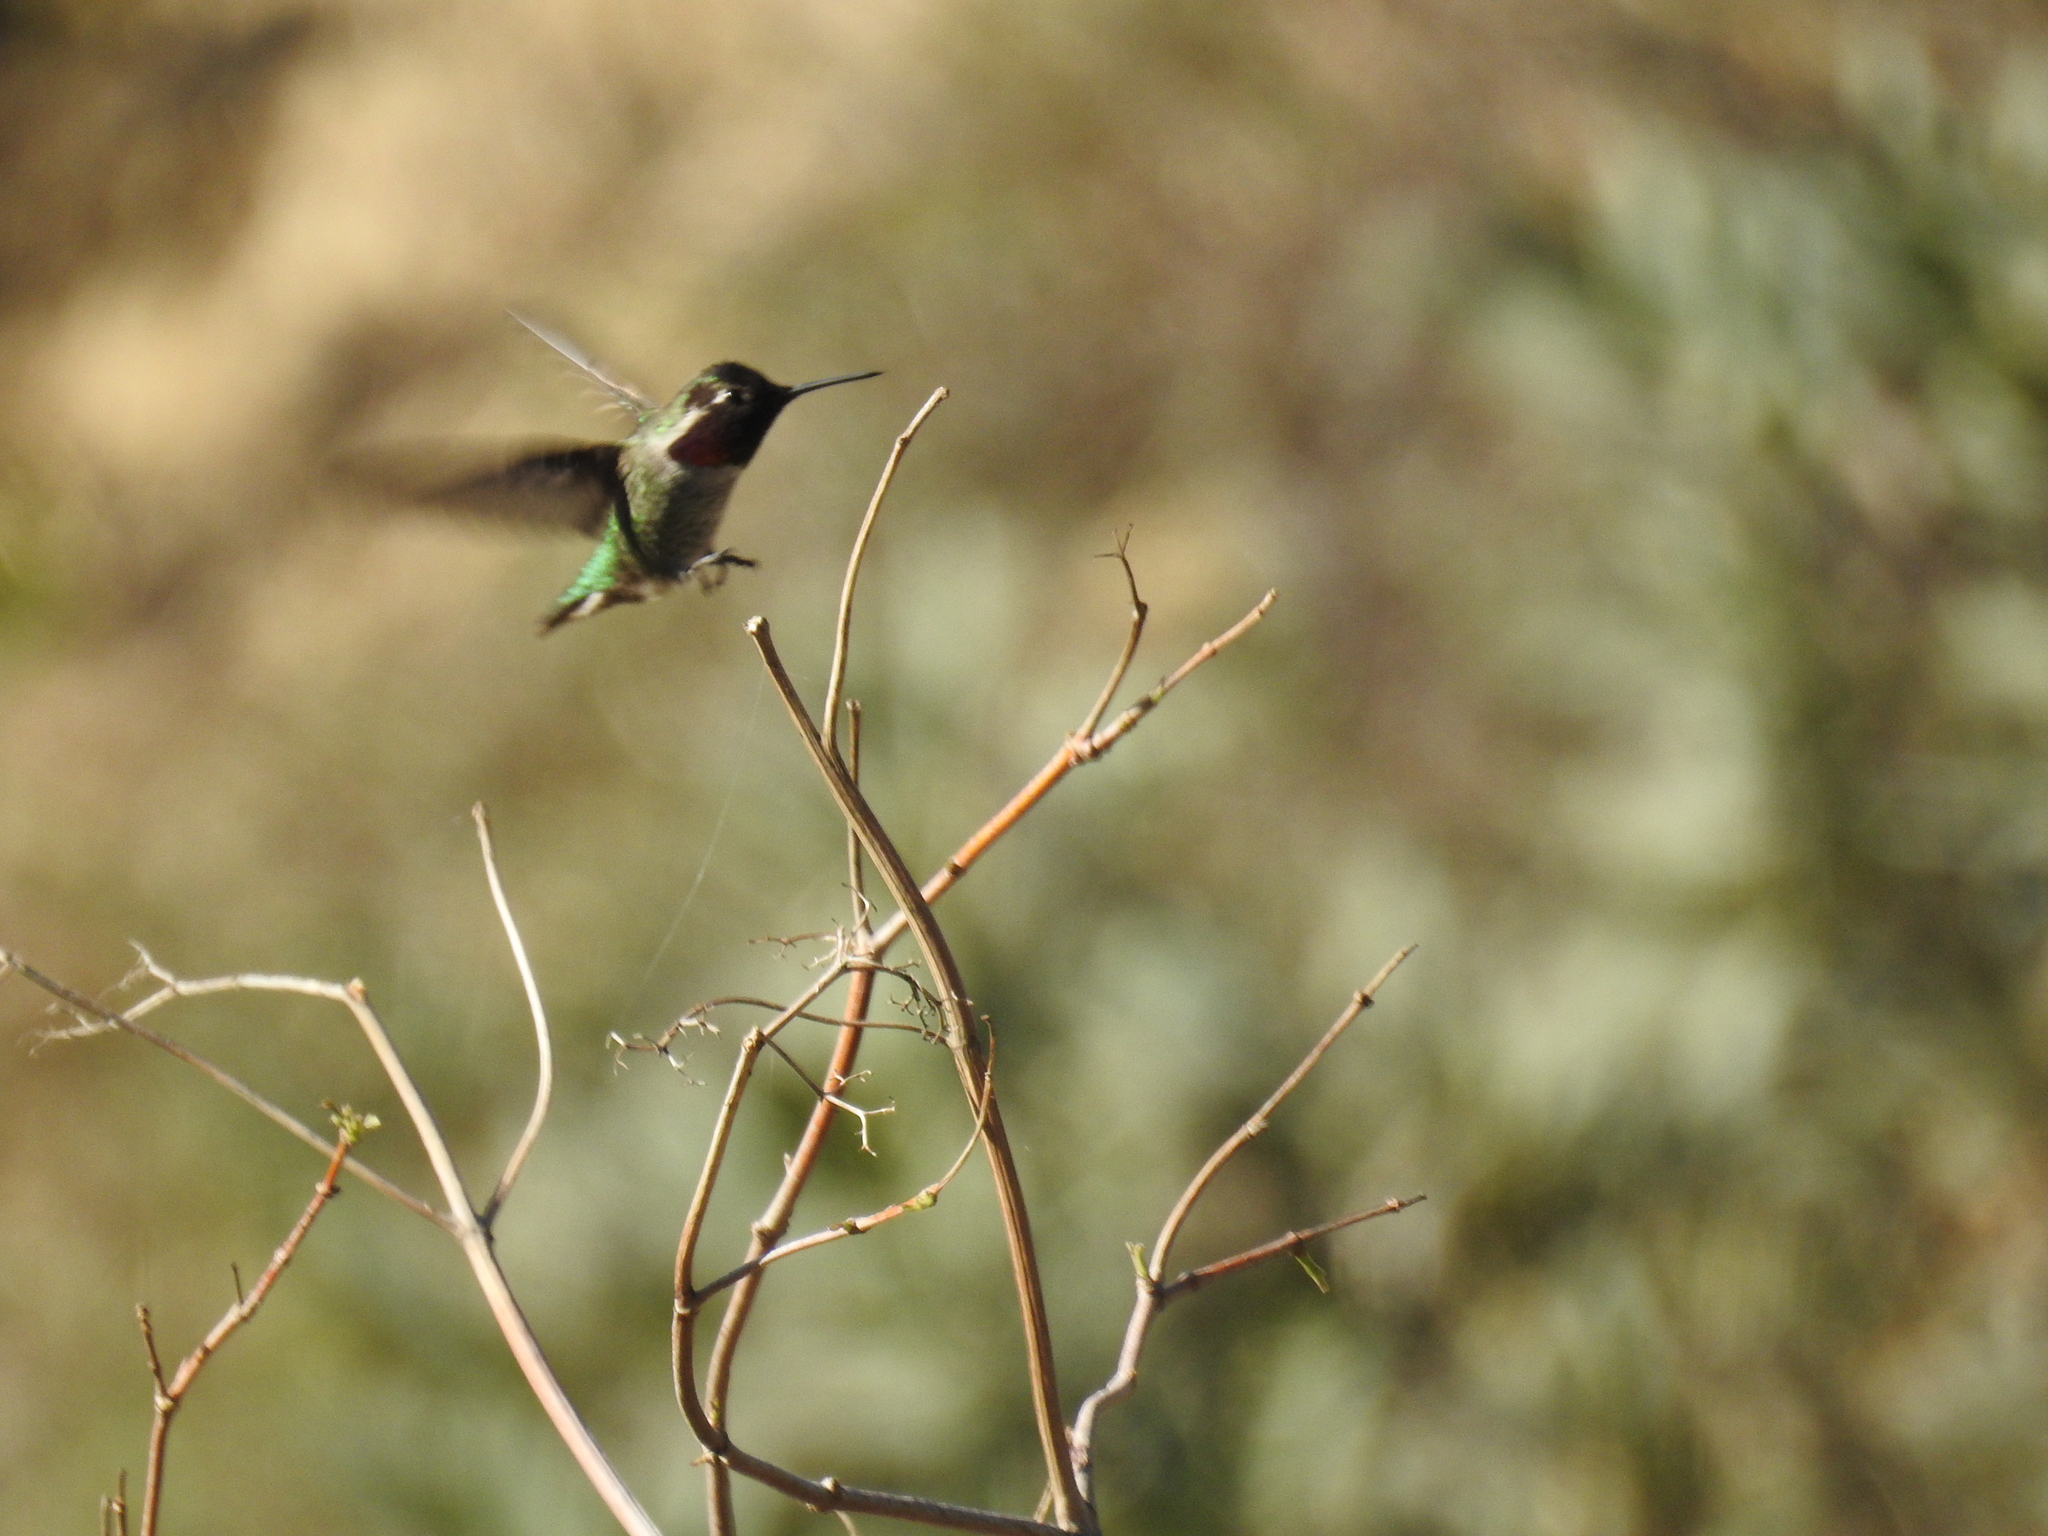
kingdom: Animalia
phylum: Chordata
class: Aves
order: Apodiformes
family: Trochilidae
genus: Calypte
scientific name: Calypte anna
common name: Anna's hummingbird
